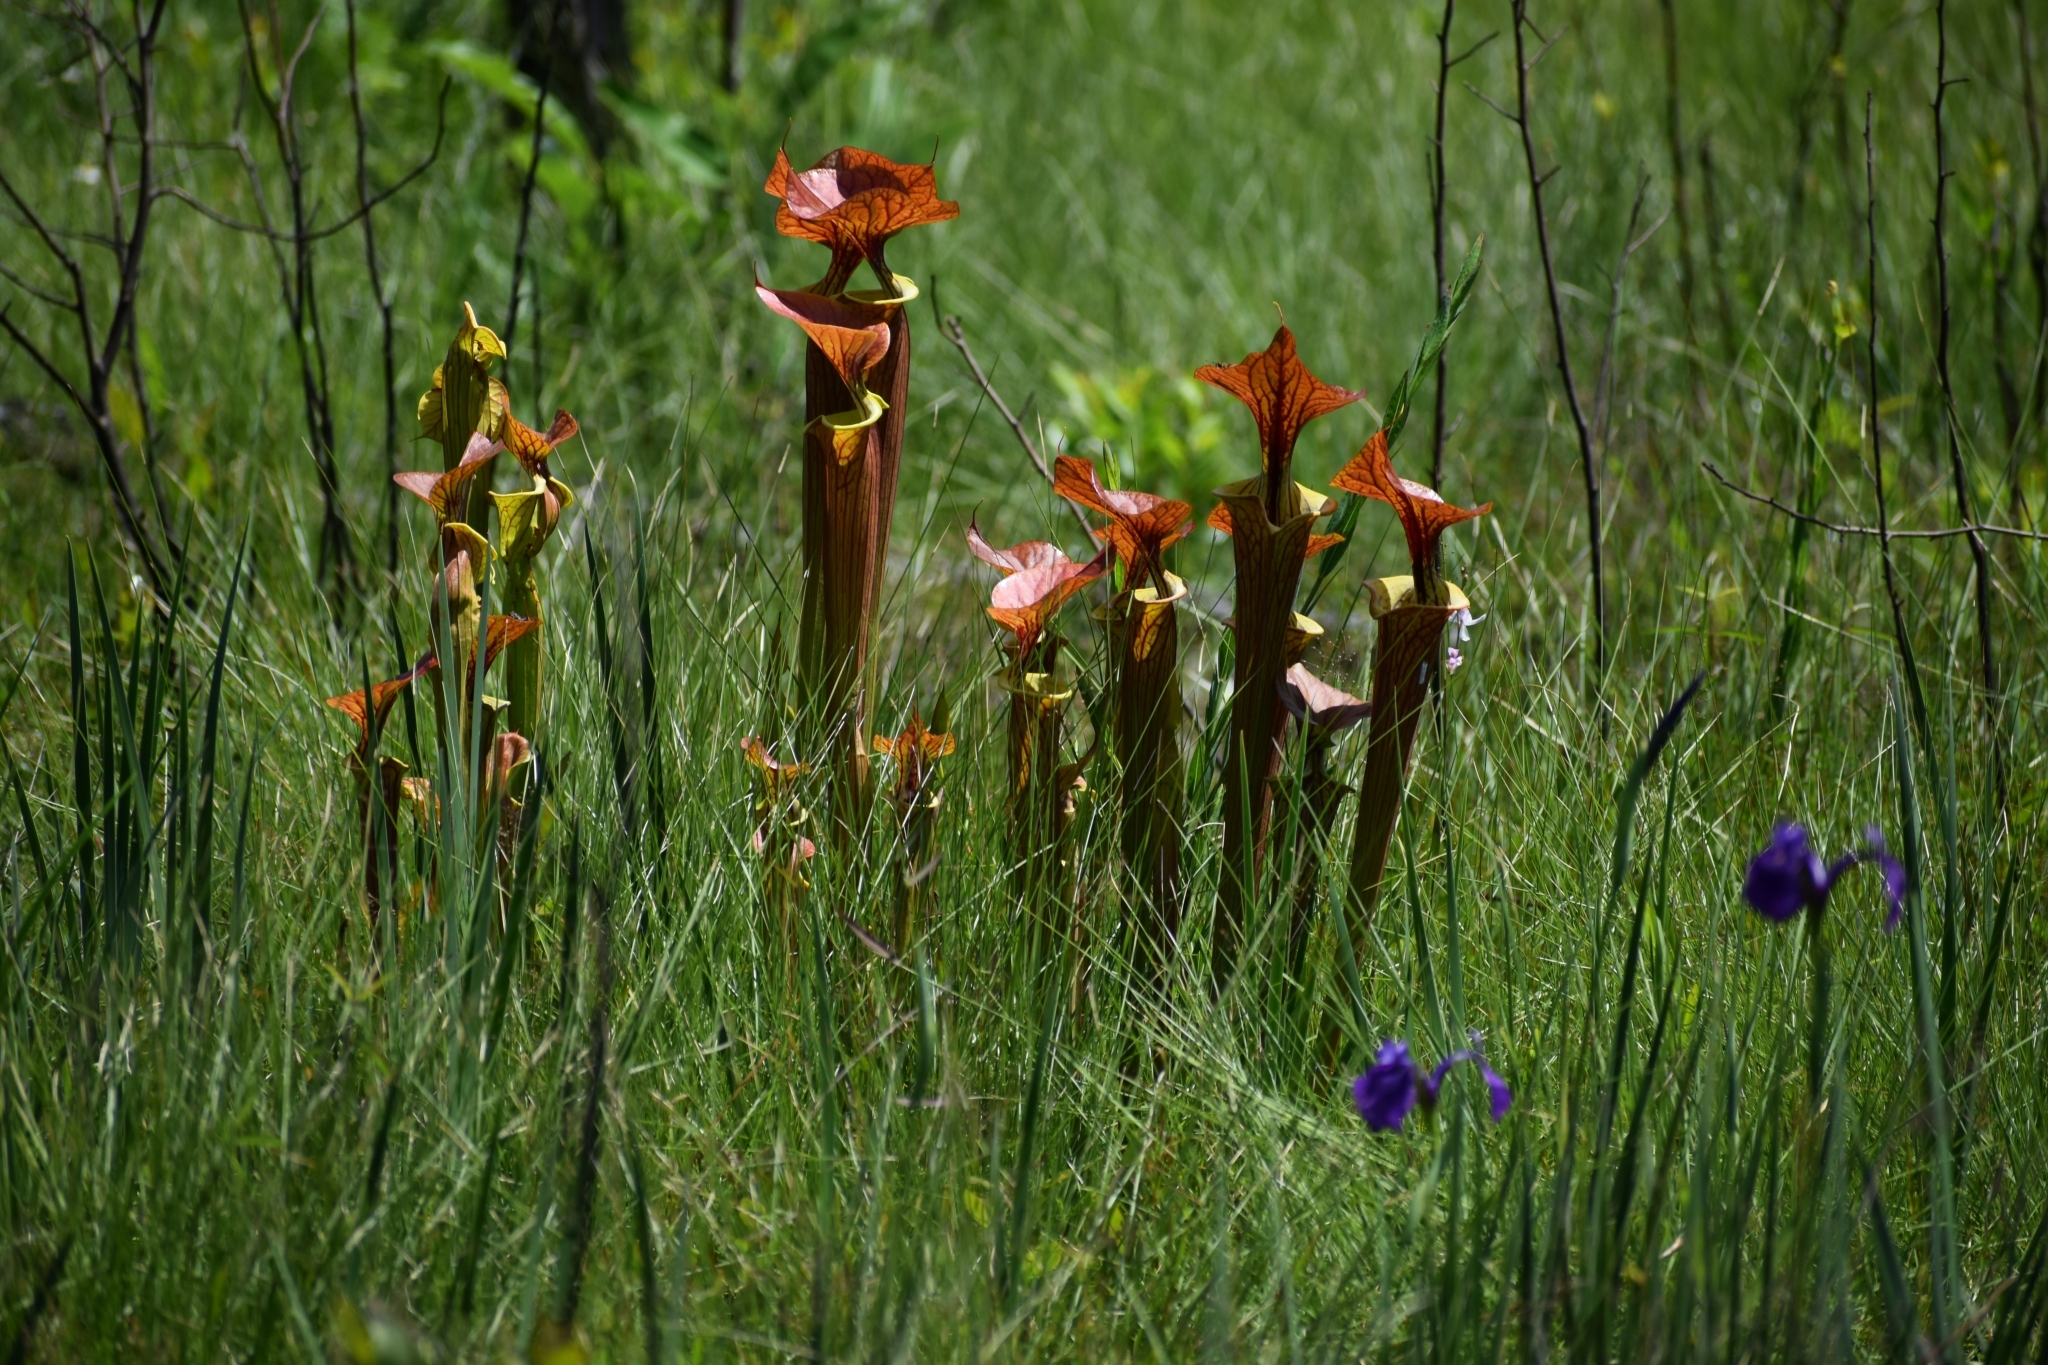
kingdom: Plantae
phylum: Tracheophyta
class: Magnoliopsida
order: Ericales
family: Sarraceniaceae
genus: Sarracenia
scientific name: Sarracenia flava
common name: Trumpets
